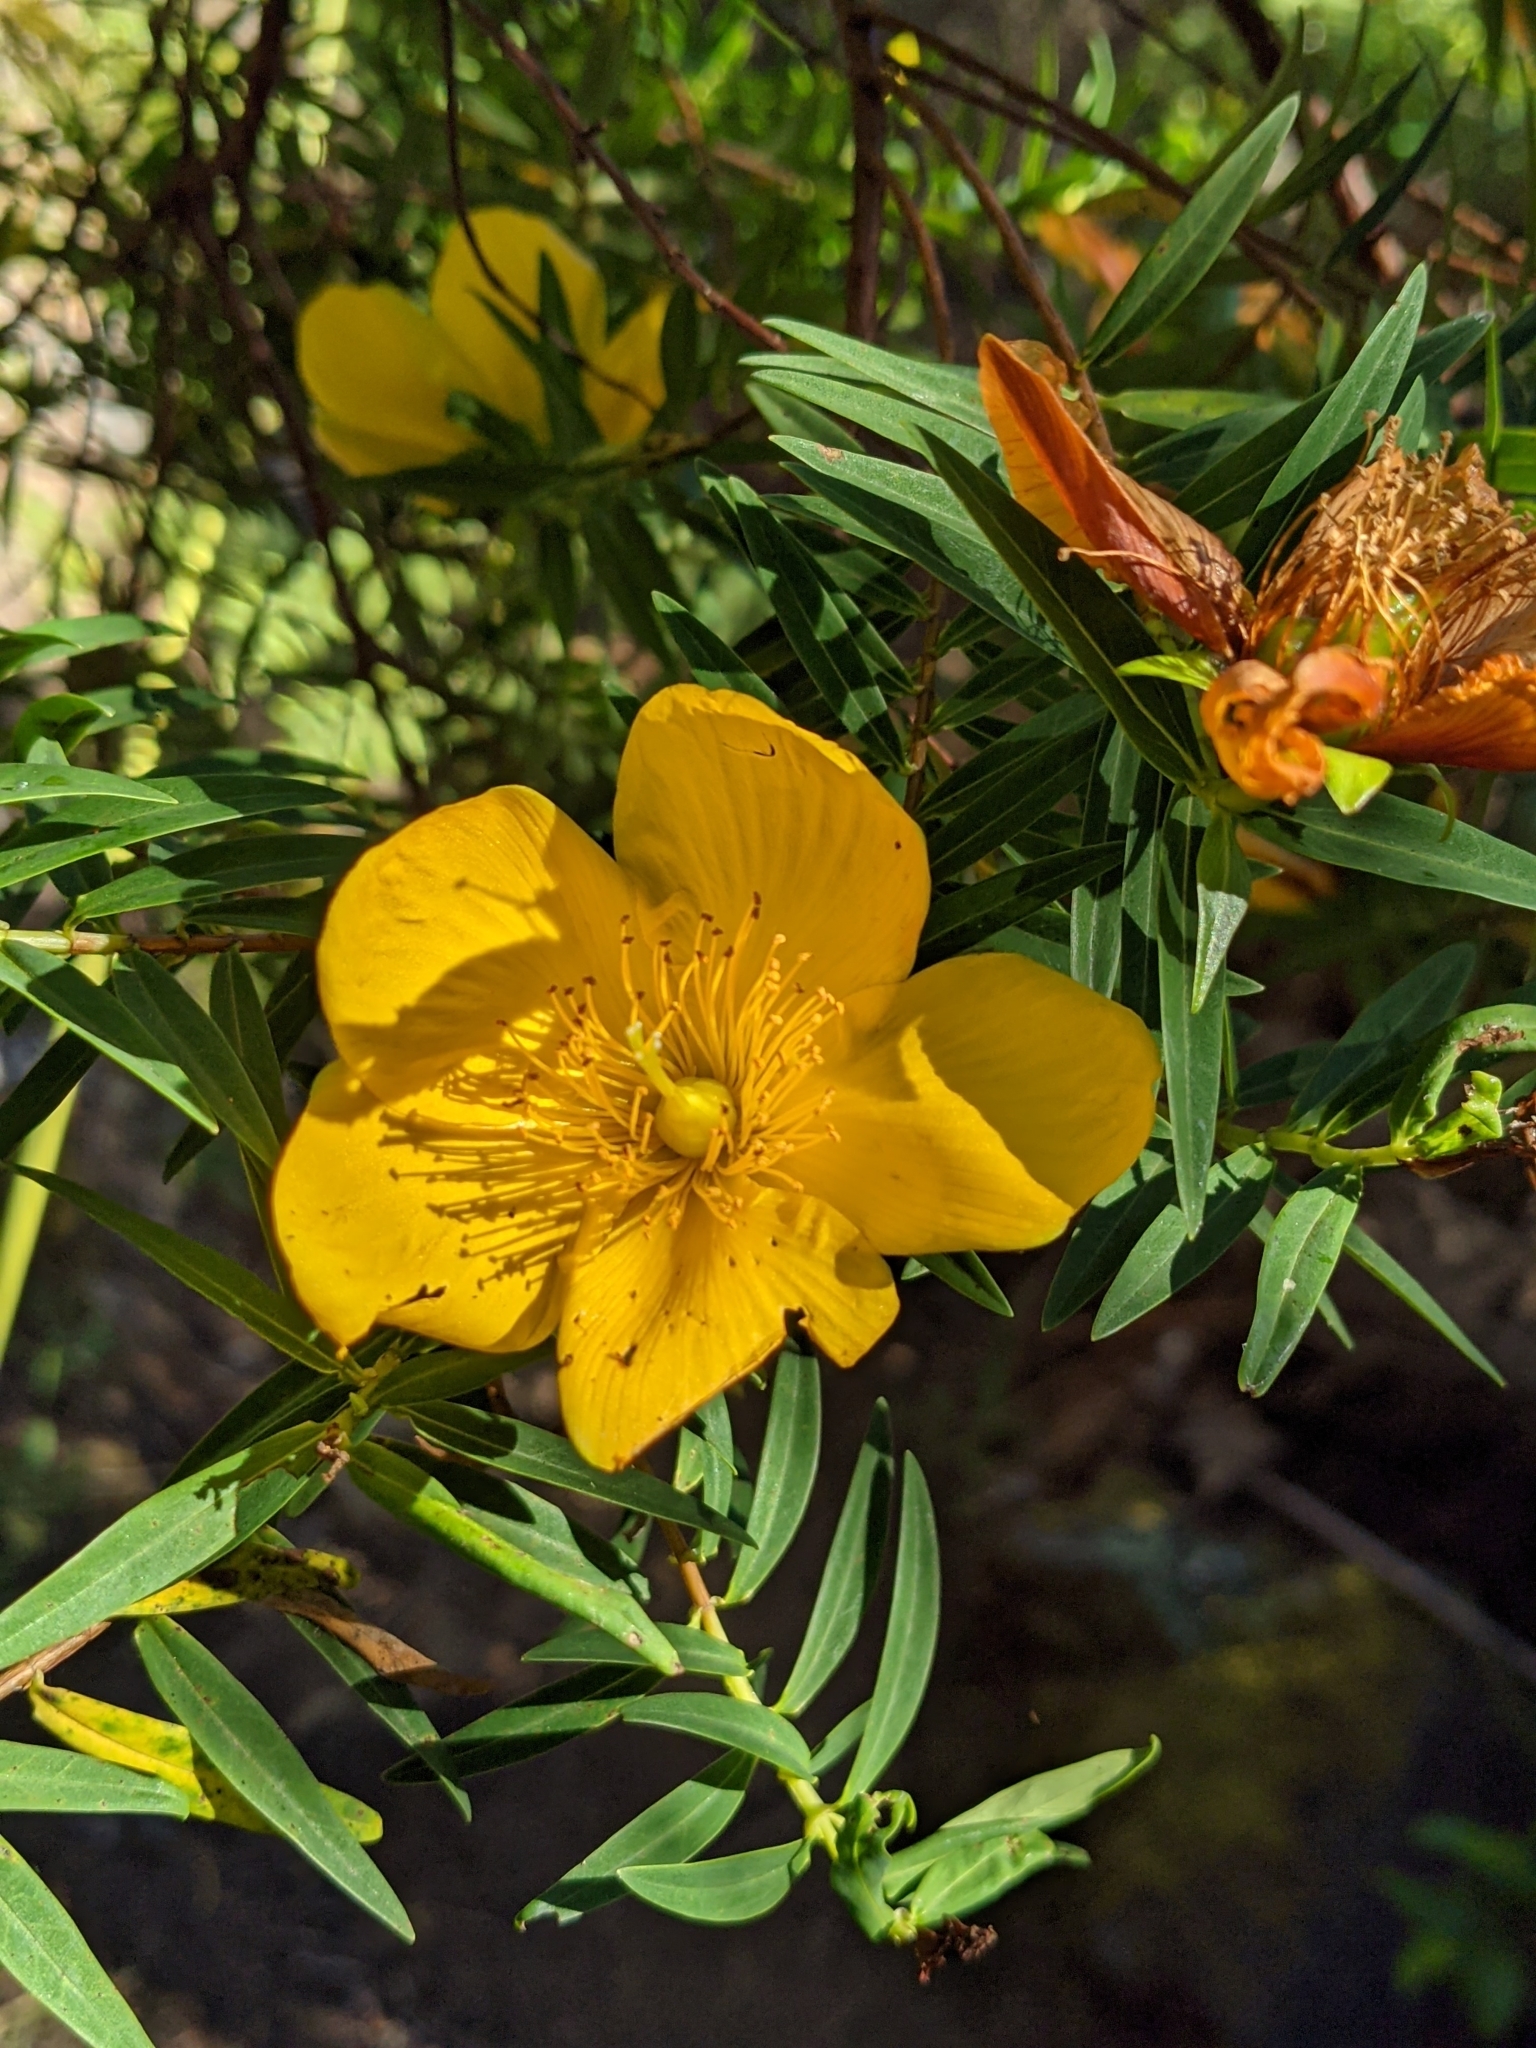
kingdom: Plantae
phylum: Tracheophyta
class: Magnoliopsida
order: Malpighiales
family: Hypericaceae
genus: Hypericum
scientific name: Hypericum lanceolatum
